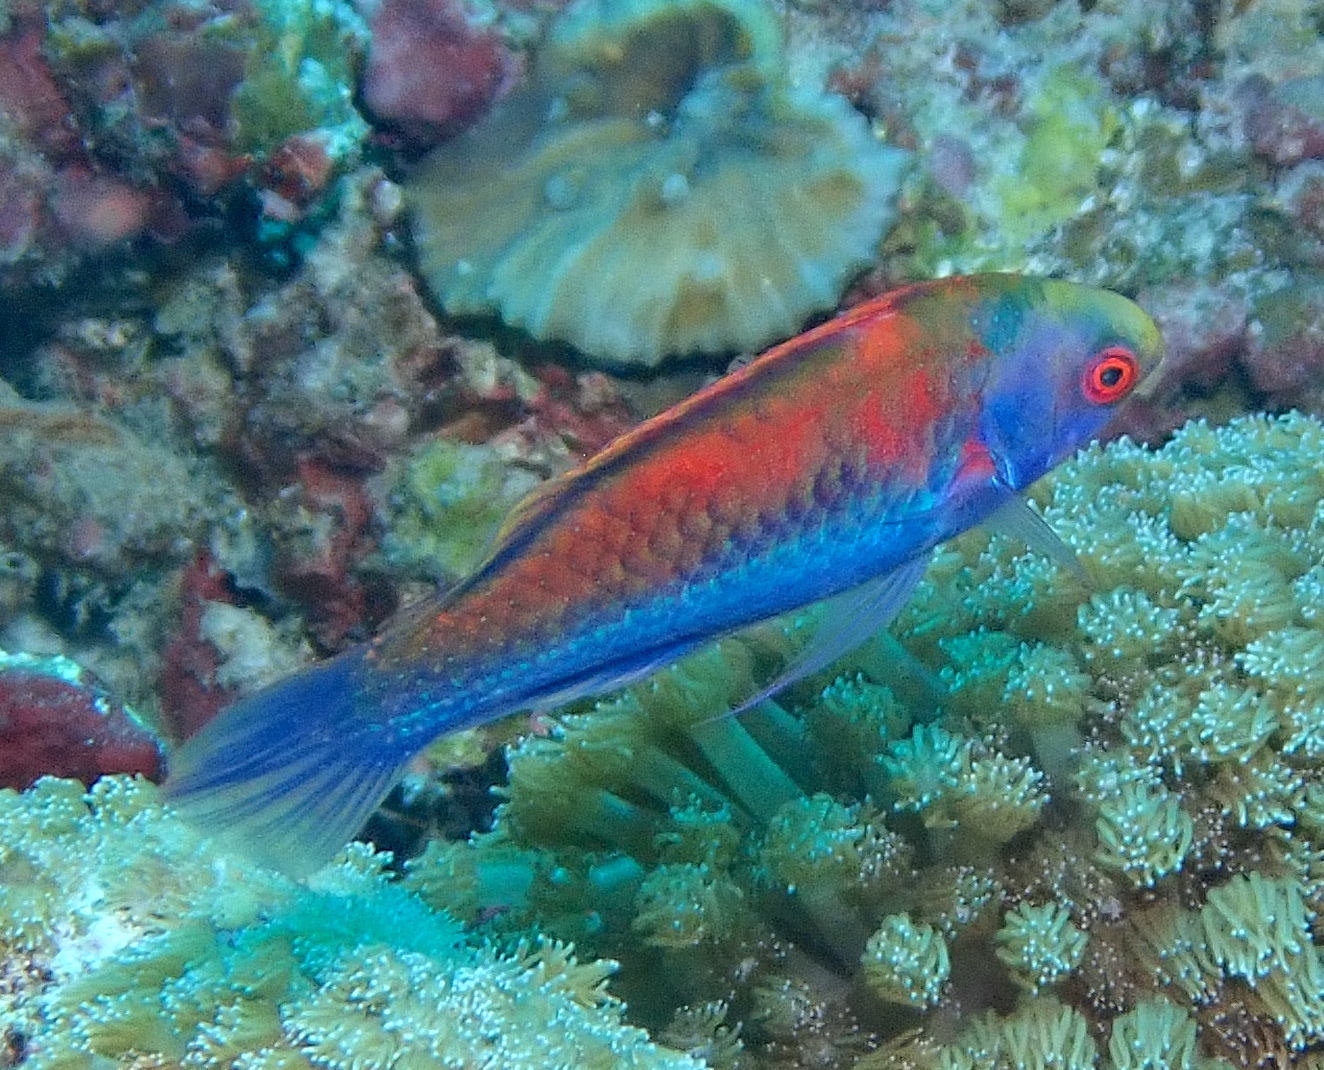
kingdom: Animalia
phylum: Chordata
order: Perciformes
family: Labridae
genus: Cirrhilabrus
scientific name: Cirrhilabrus solorensis
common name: Red-eye wrasse
